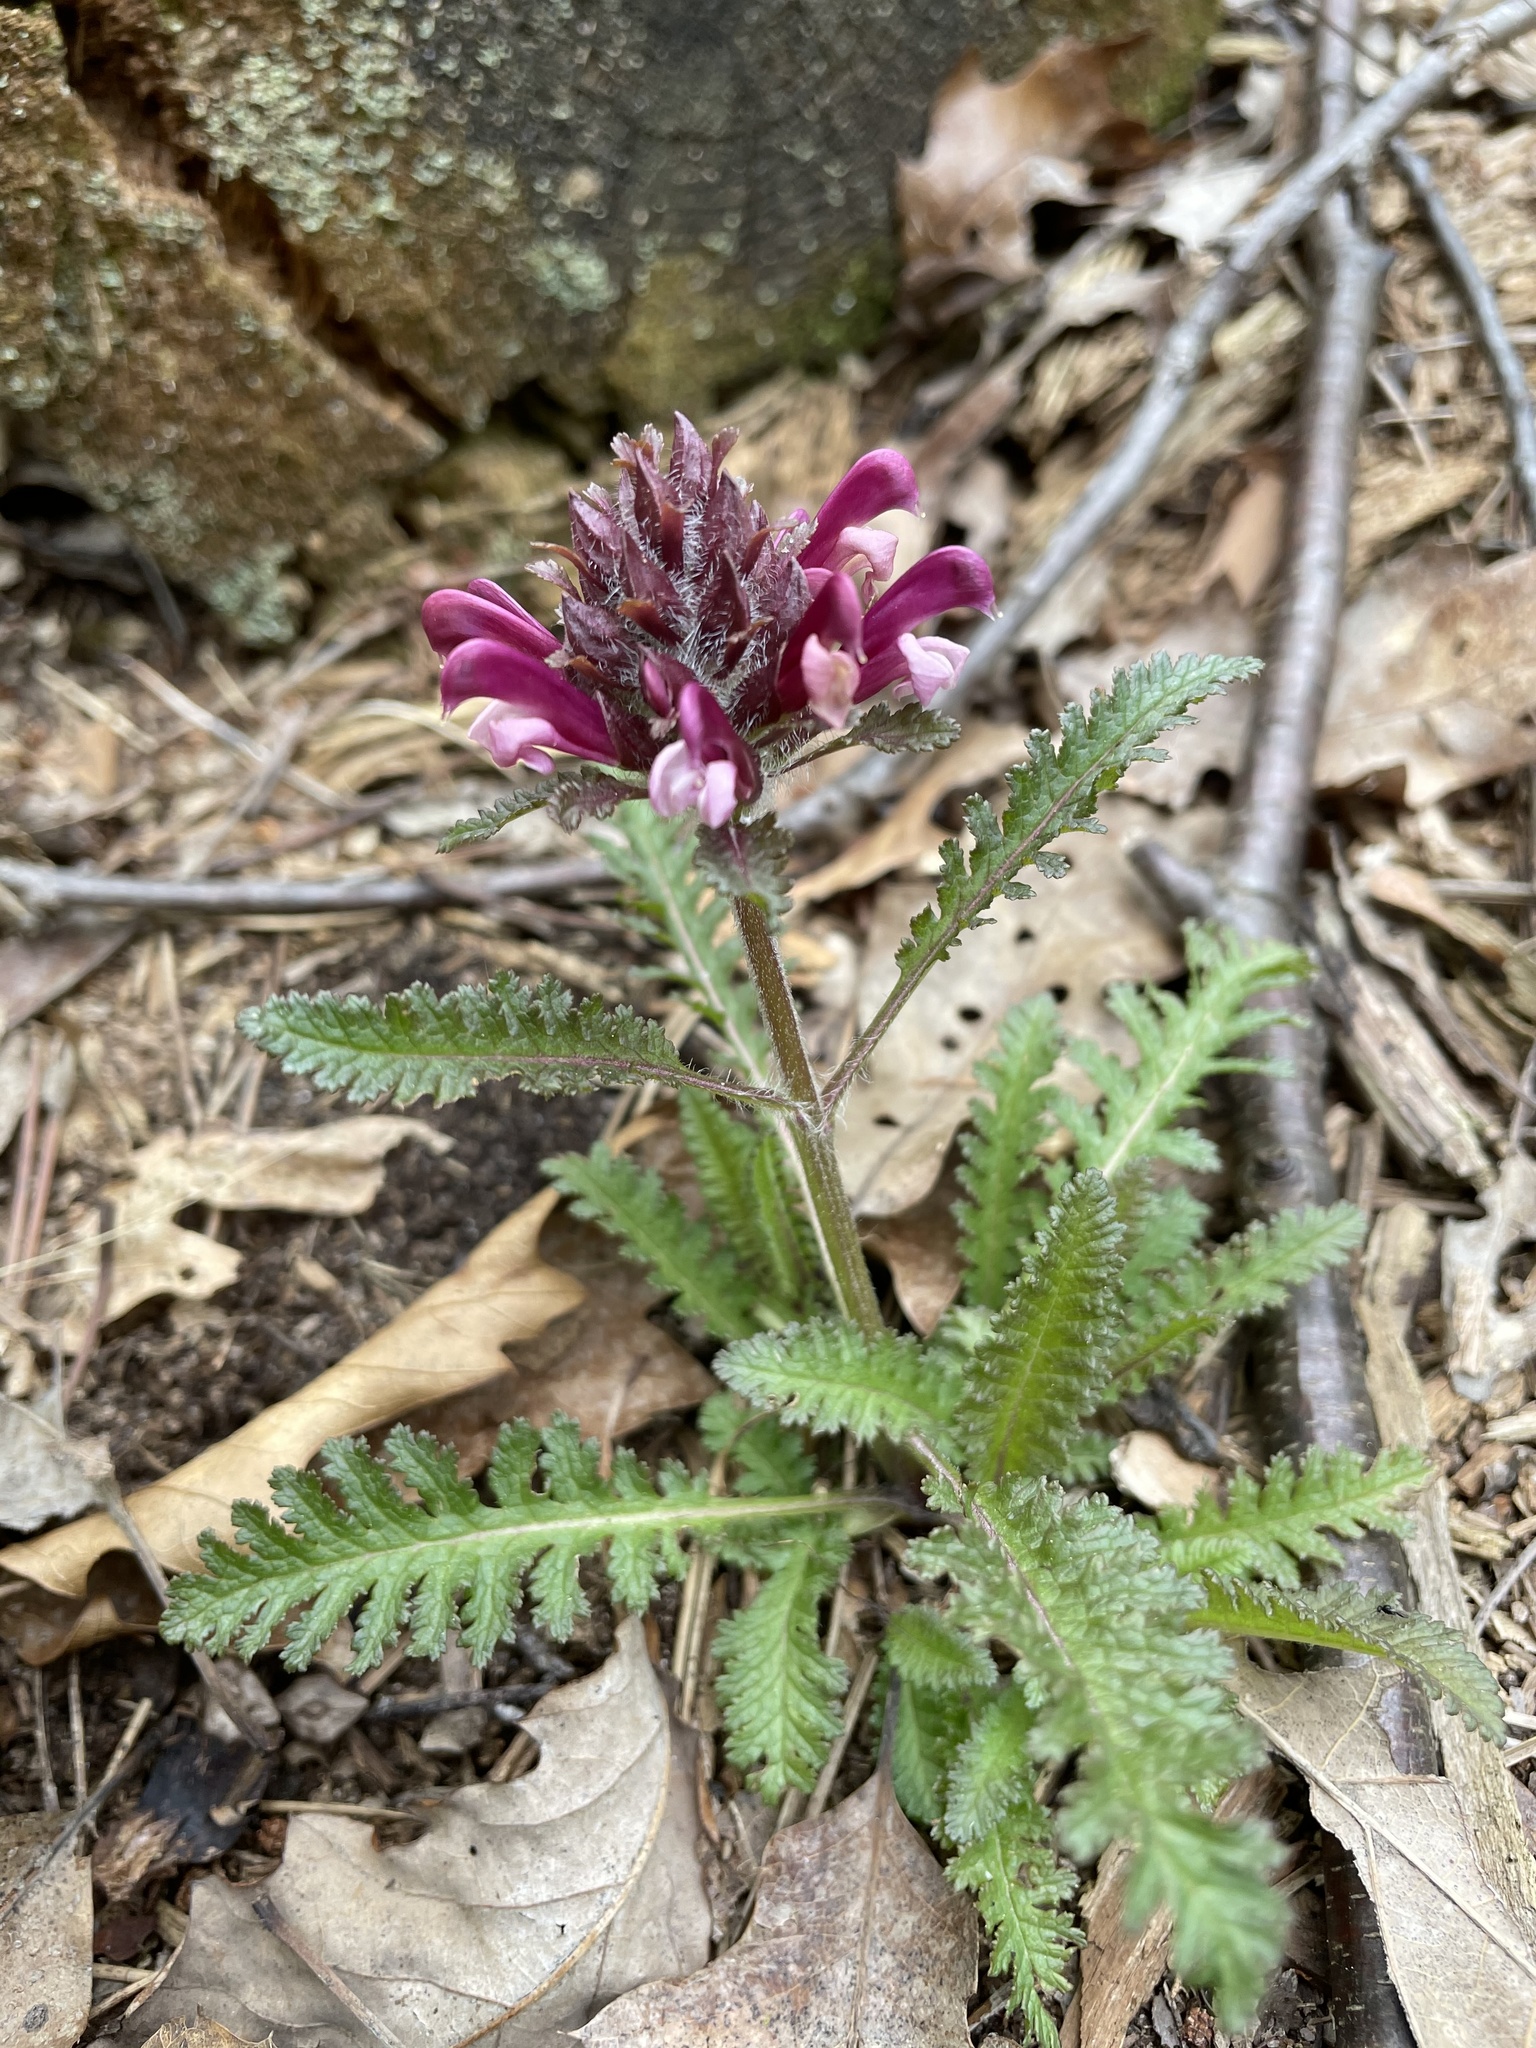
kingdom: Plantae
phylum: Tracheophyta
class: Magnoliopsida
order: Lamiales
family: Orobanchaceae
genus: Pedicularis
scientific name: Pedicularis canadensis
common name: Early lousewort
